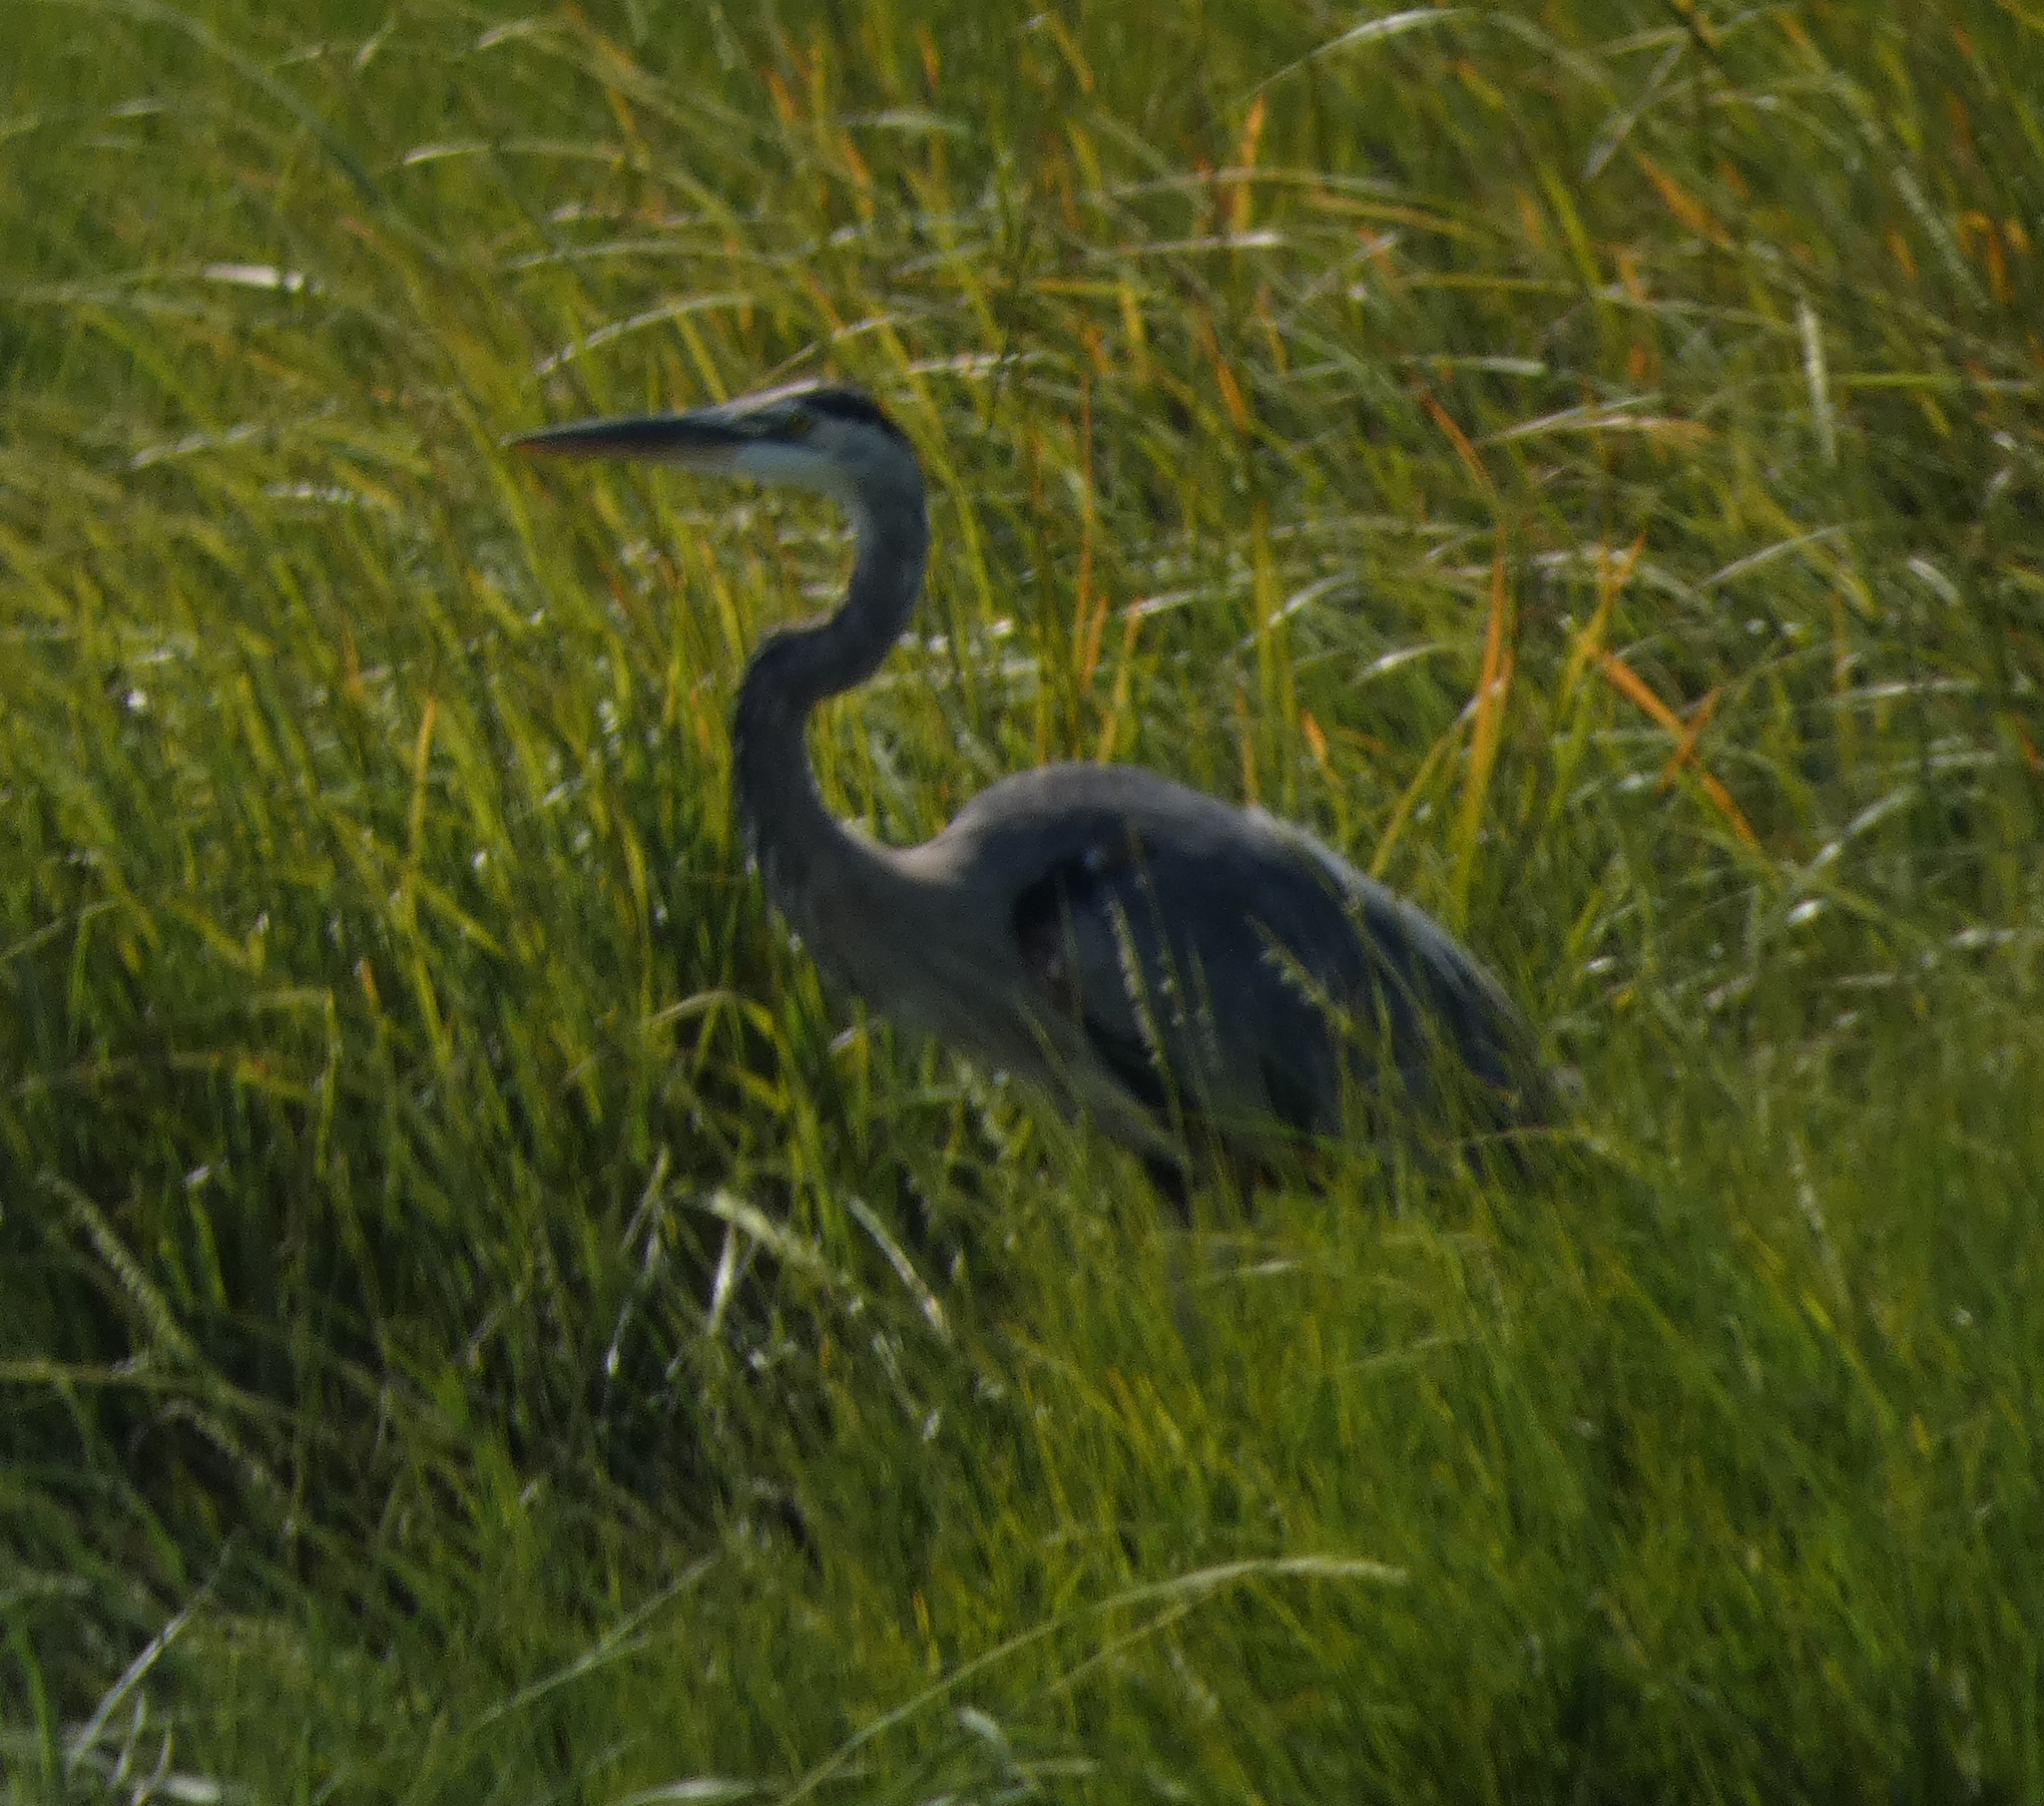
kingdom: Animalia
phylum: Chordata
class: Aves
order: Pelecaniformes
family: Ardeidae
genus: Ardea
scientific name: Ardea herodias
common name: Great blue heron
